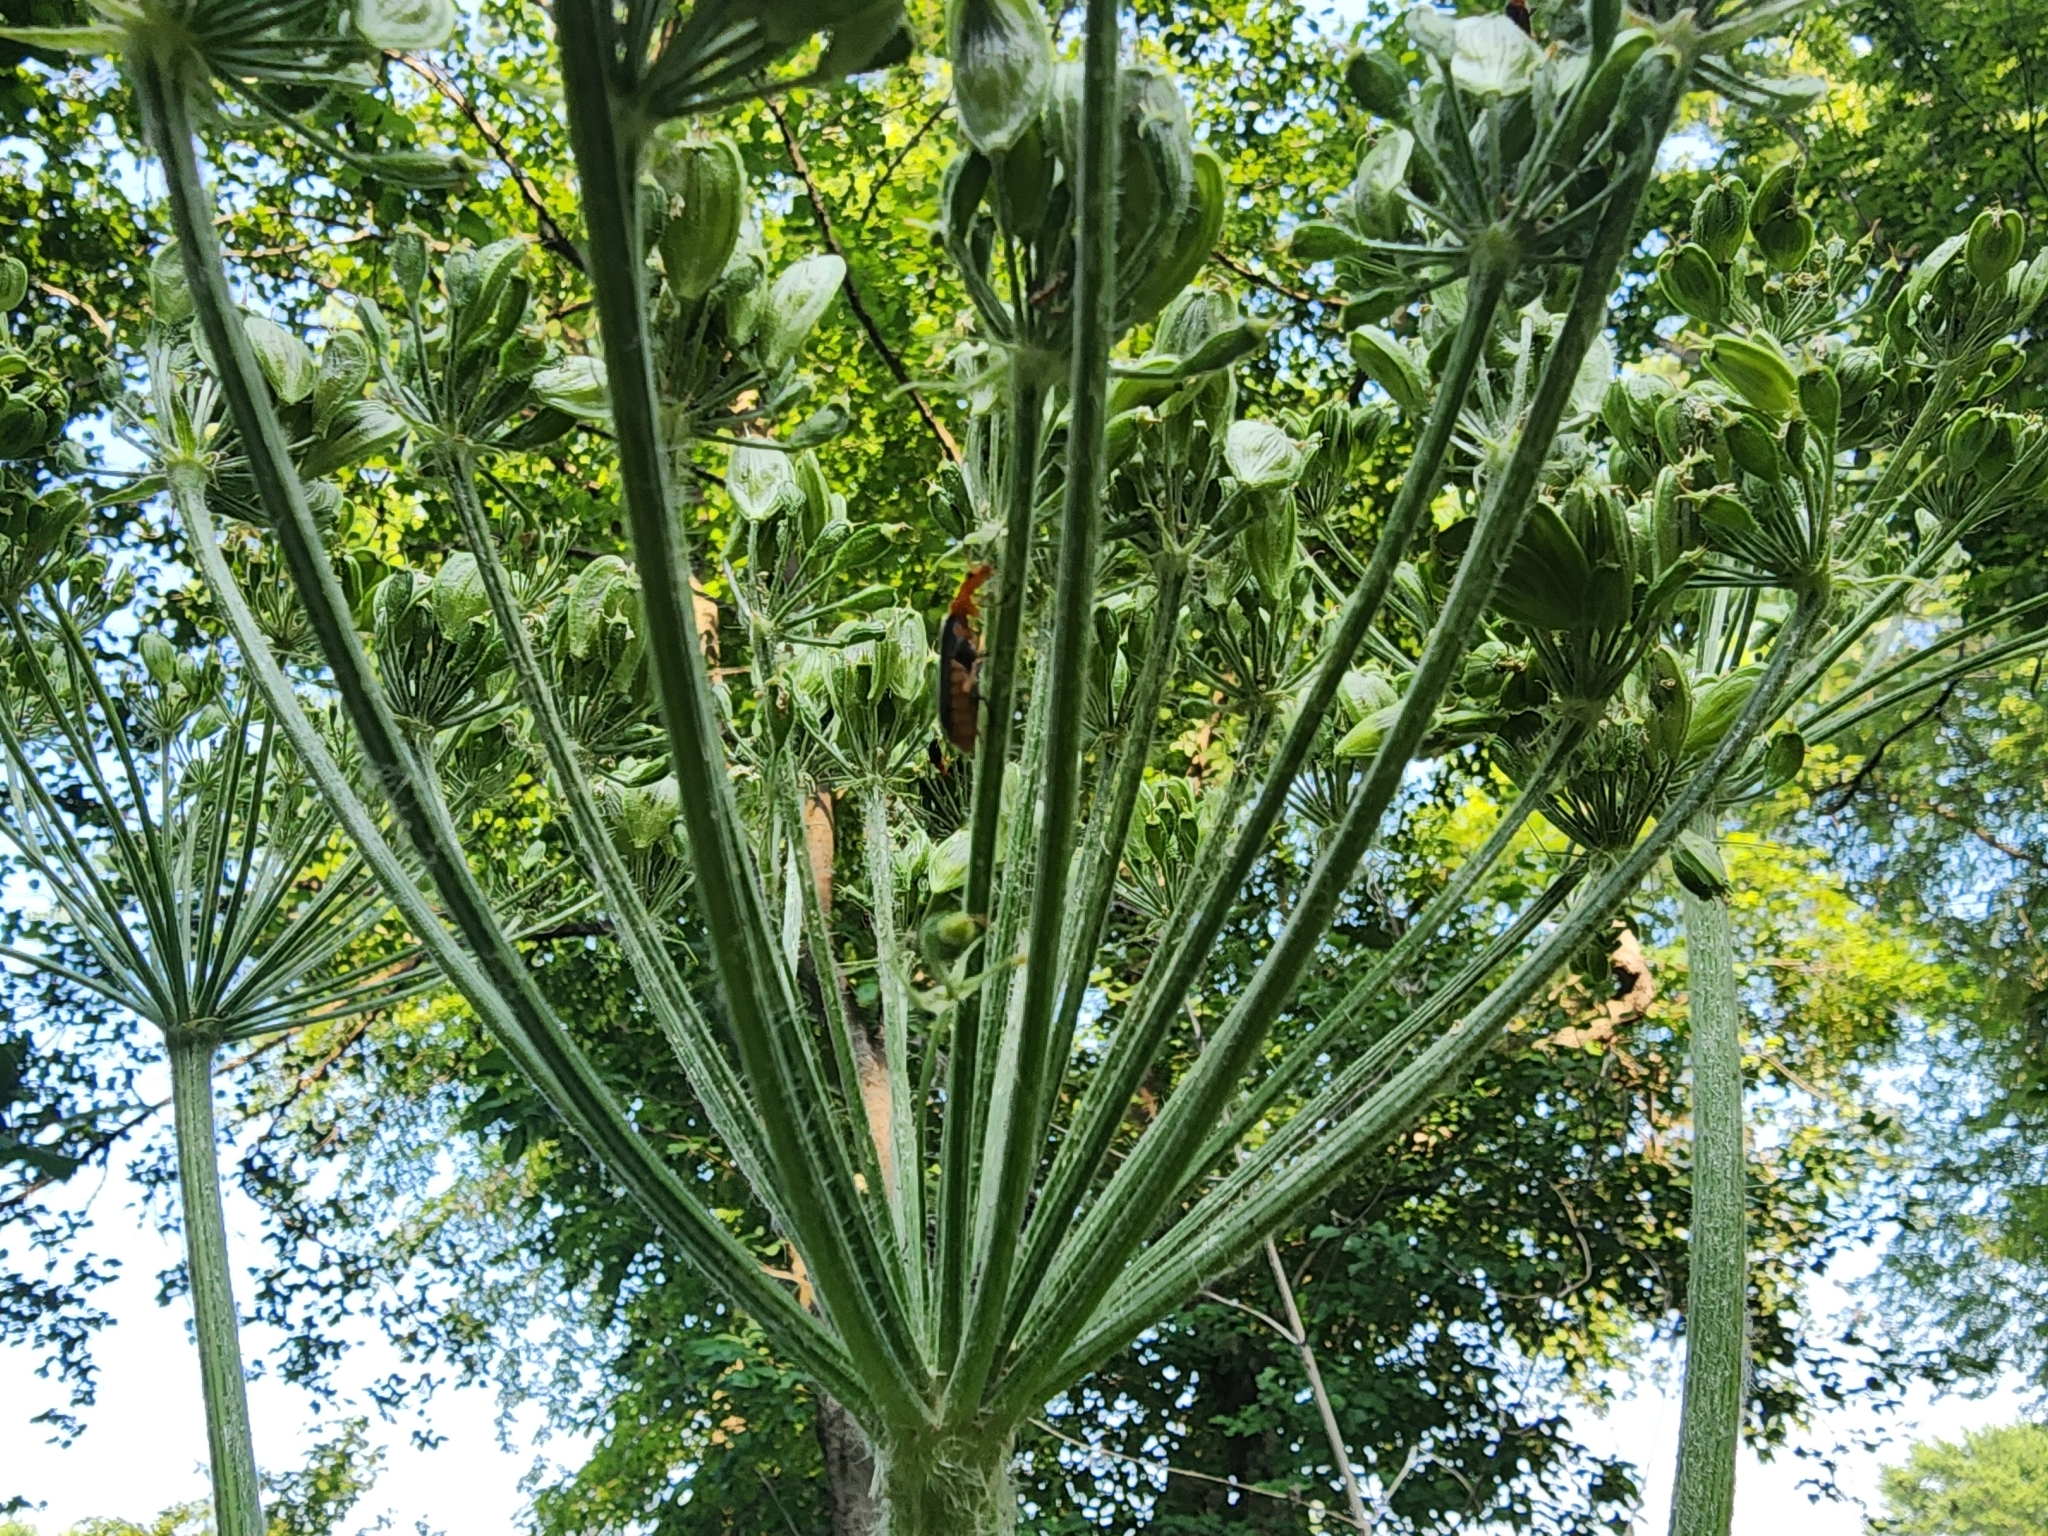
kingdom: Animalia
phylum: Arthropoda
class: Insecta
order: Coleoptera
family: Cantharidae
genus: Podabrus
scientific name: Podabrus tomentosus
